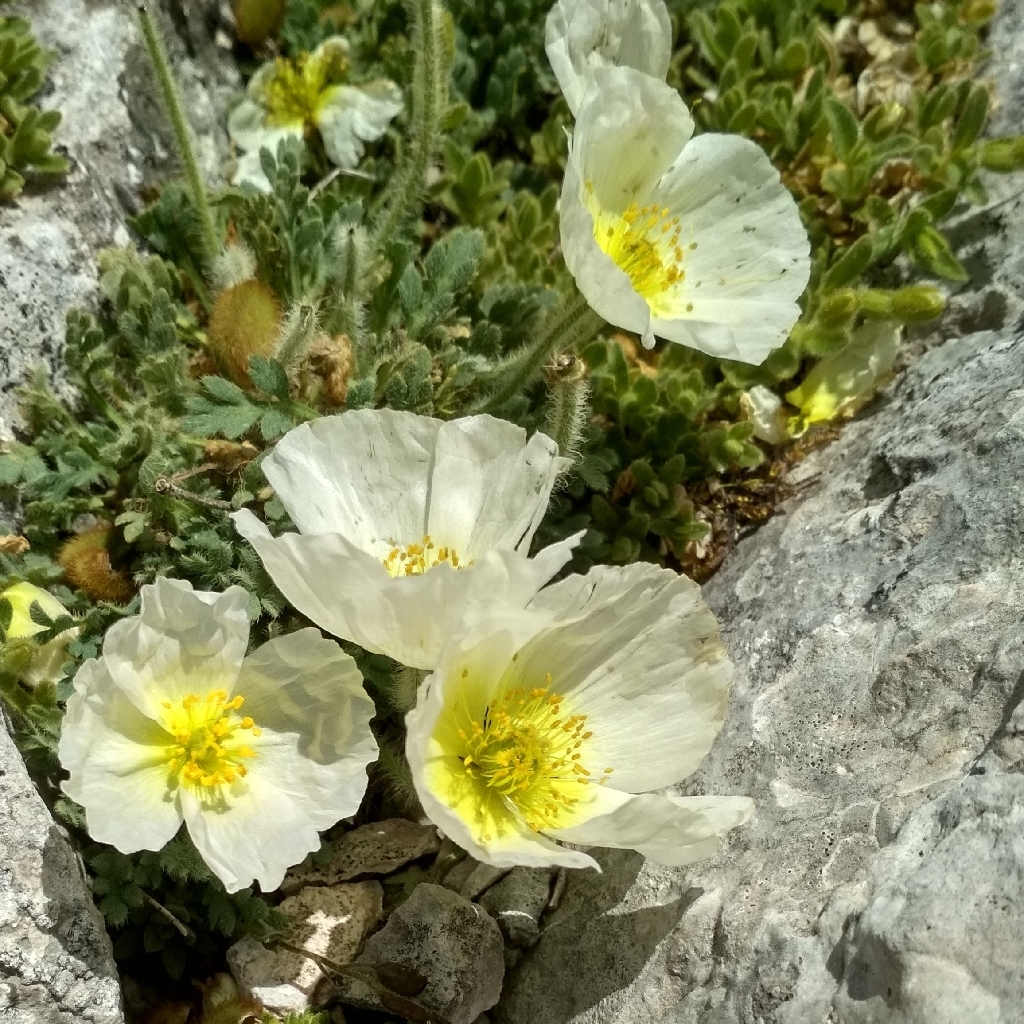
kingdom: Plantae
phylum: Tracheophyta
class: Magnoliopsida
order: Ranunculales
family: Papaveraceae
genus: Papaver
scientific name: Papaver alpinum
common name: Austrian poppy
